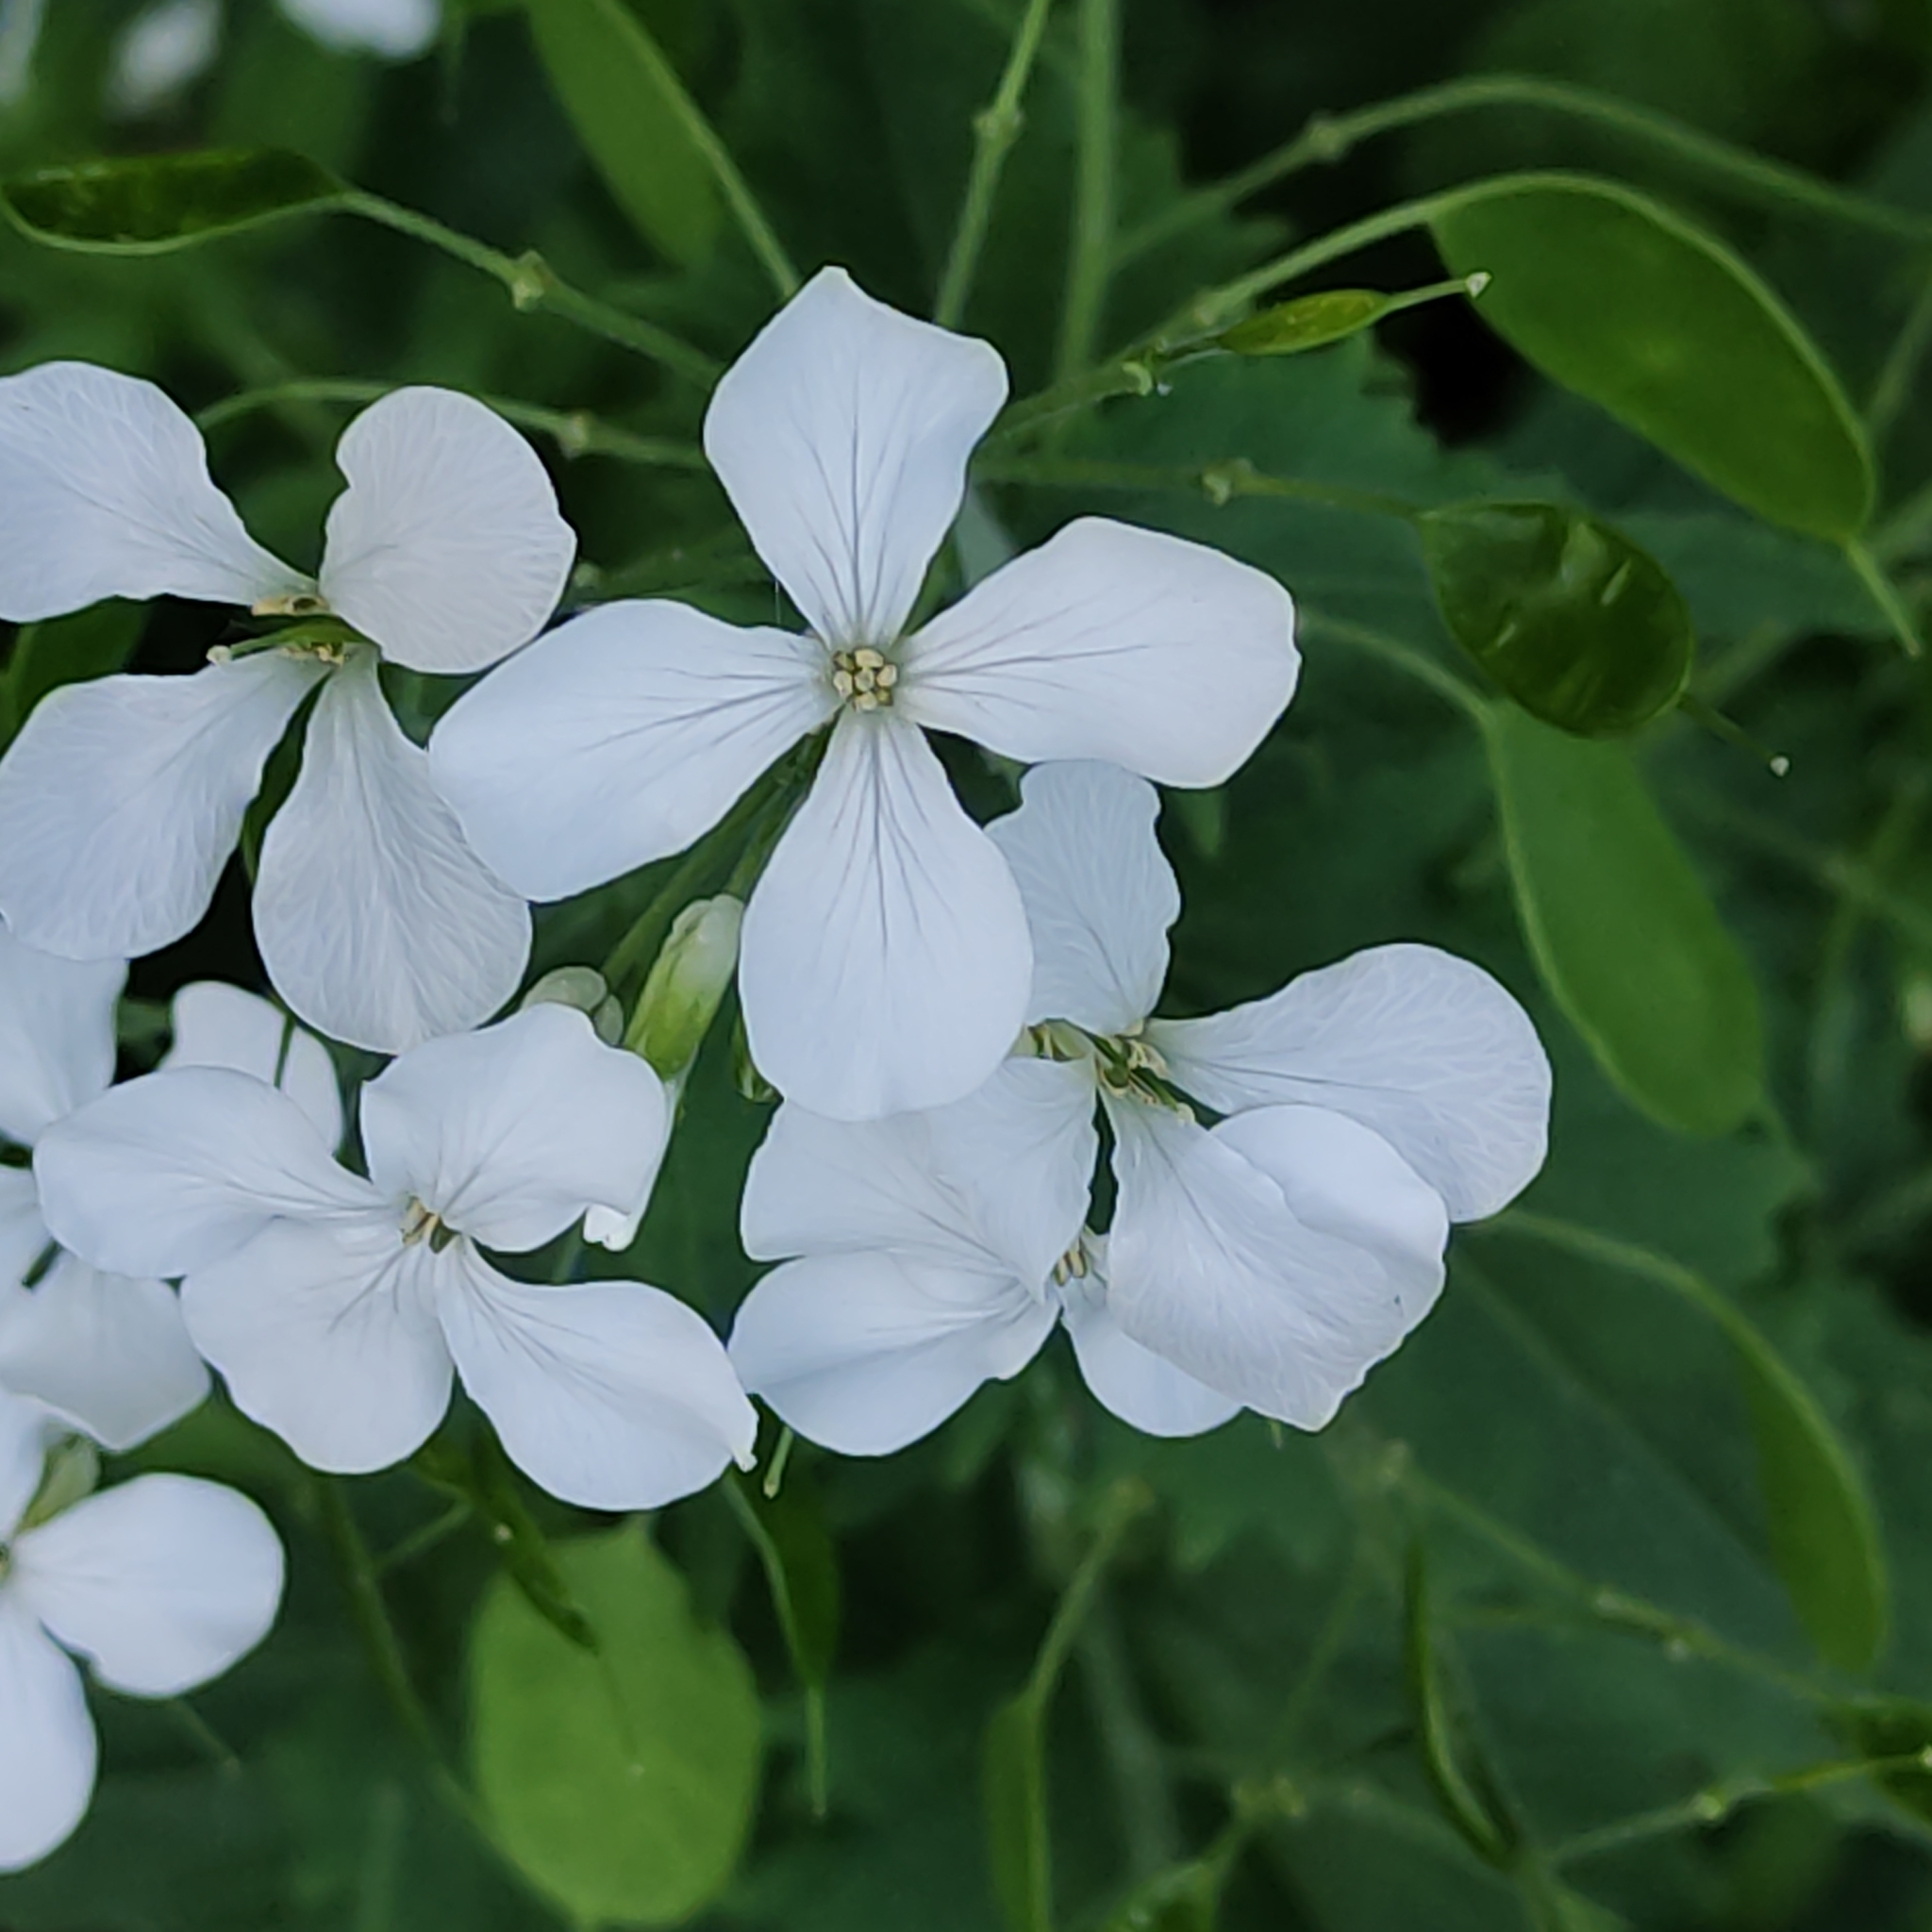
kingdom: Plantae
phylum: Tracheophyta
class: Magnoliopsida
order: Brassicales
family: Brassicaceae
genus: Lunaria
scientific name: Lunaria annua
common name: Honesty
